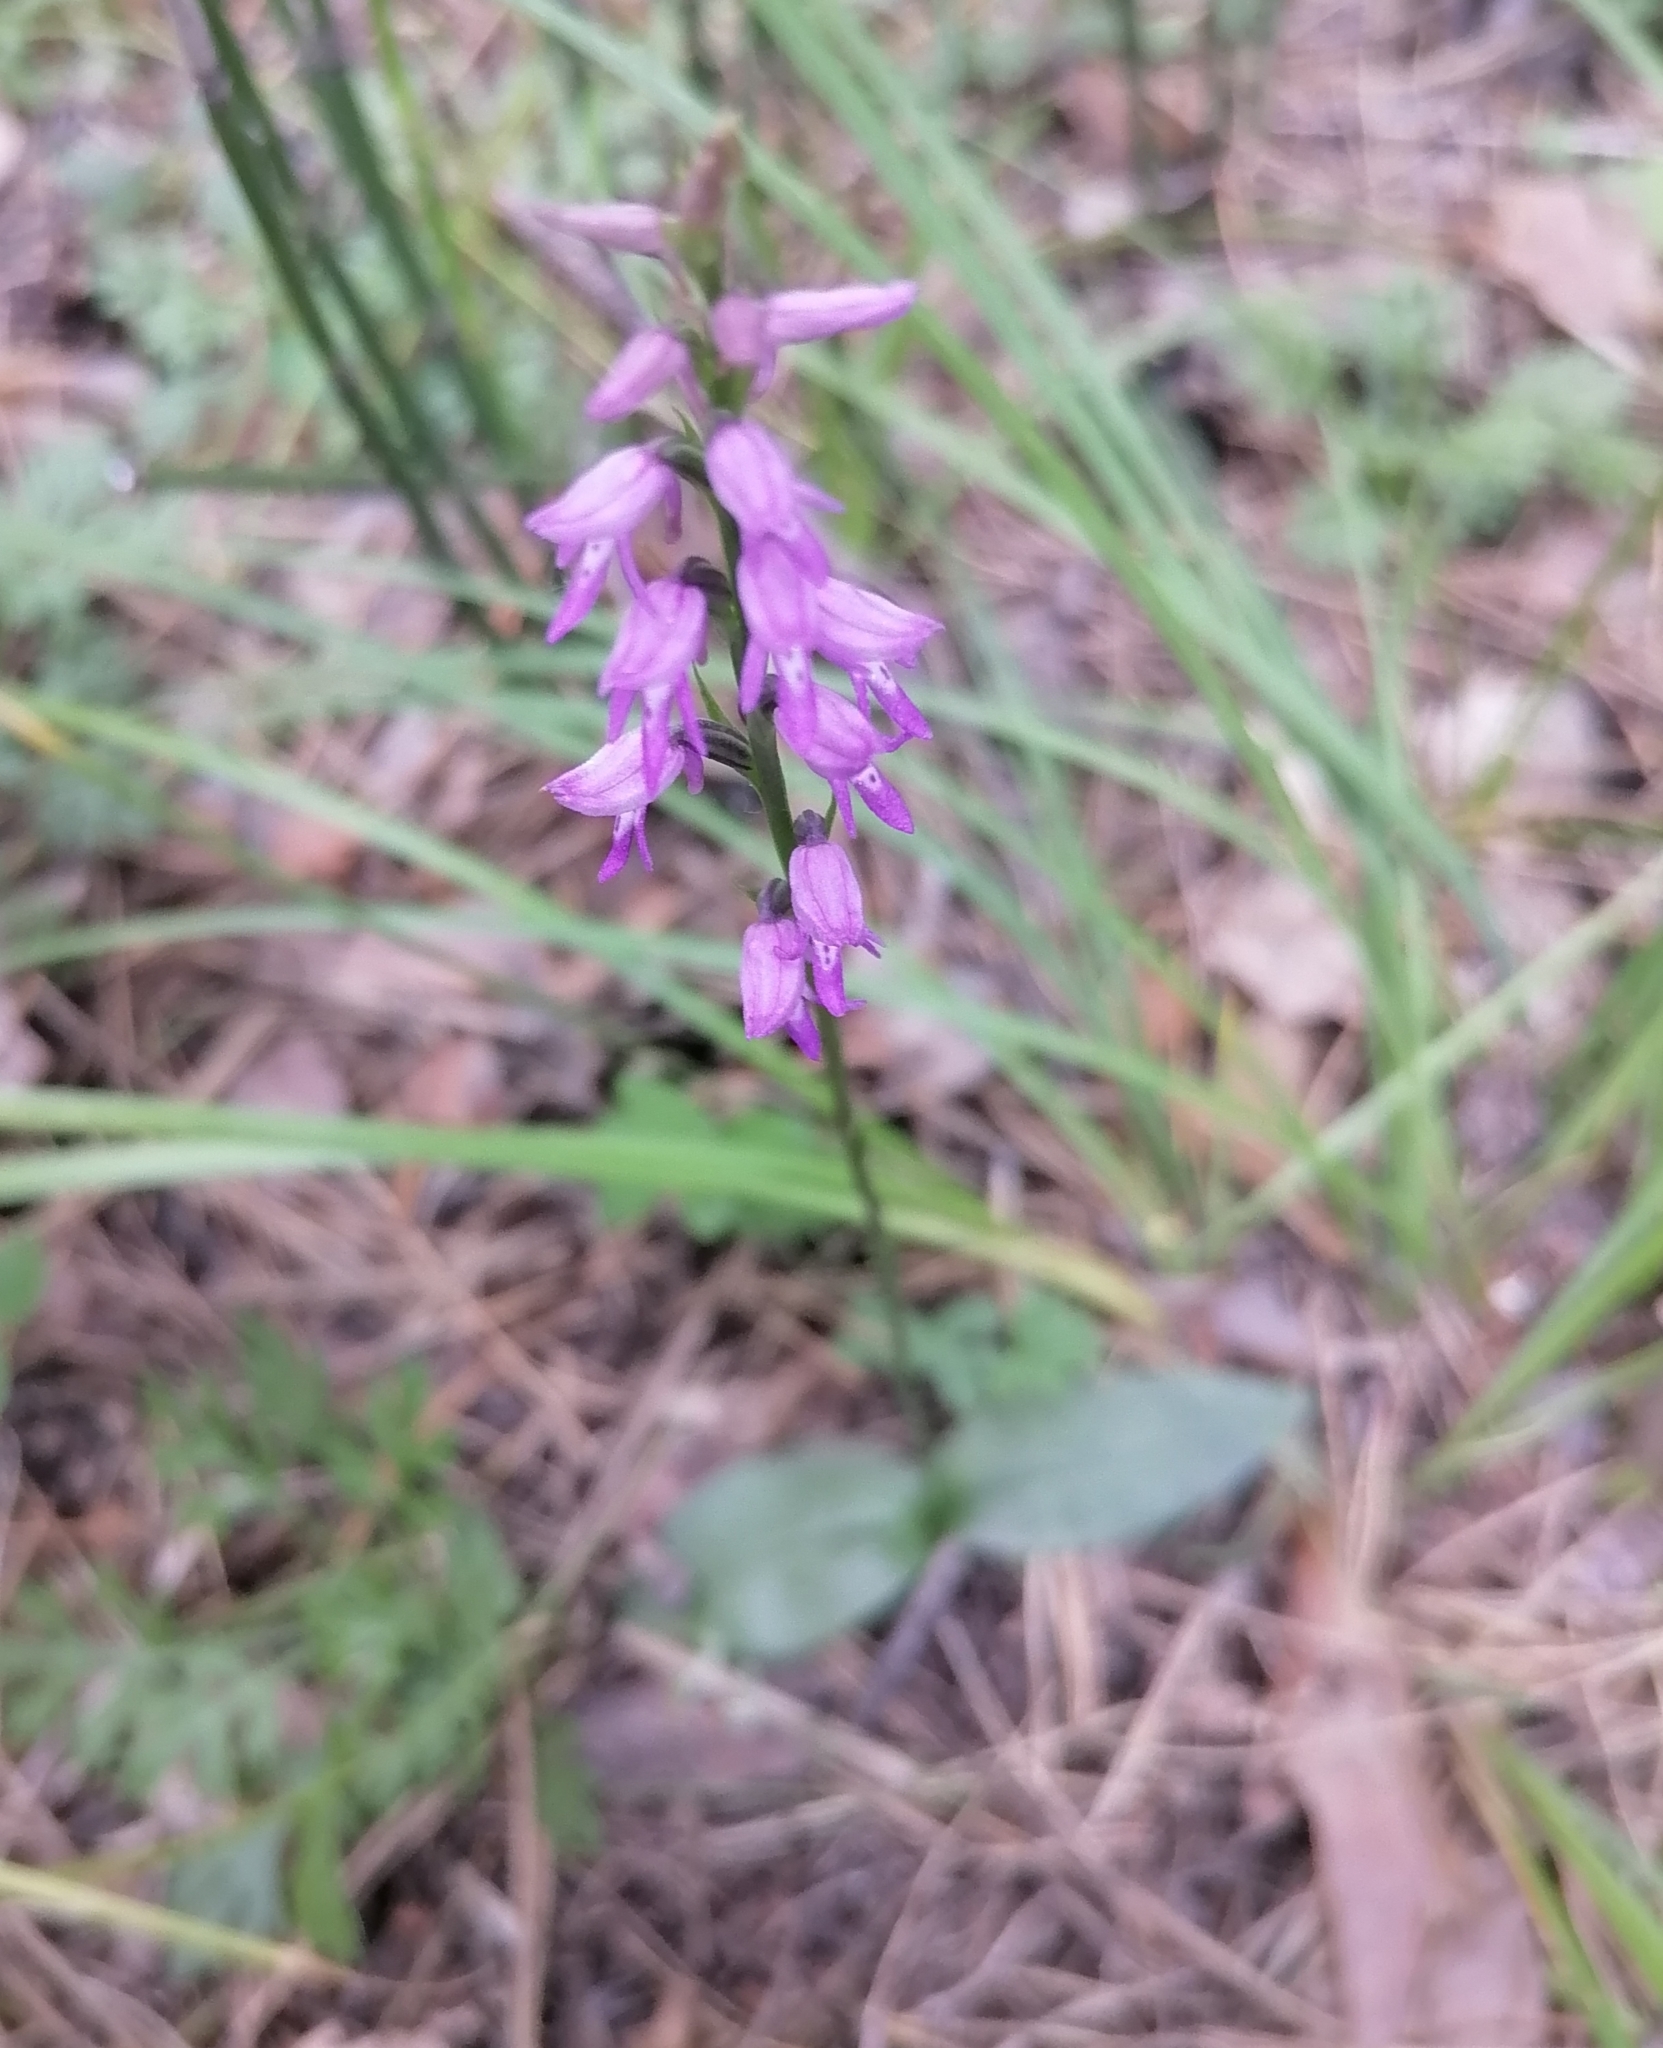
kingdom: Plantae
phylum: Tracheophyta
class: Liliopsida
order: Asparagales
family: Orchidaceae
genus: Hemipilia
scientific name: Hemipilia cucullata
